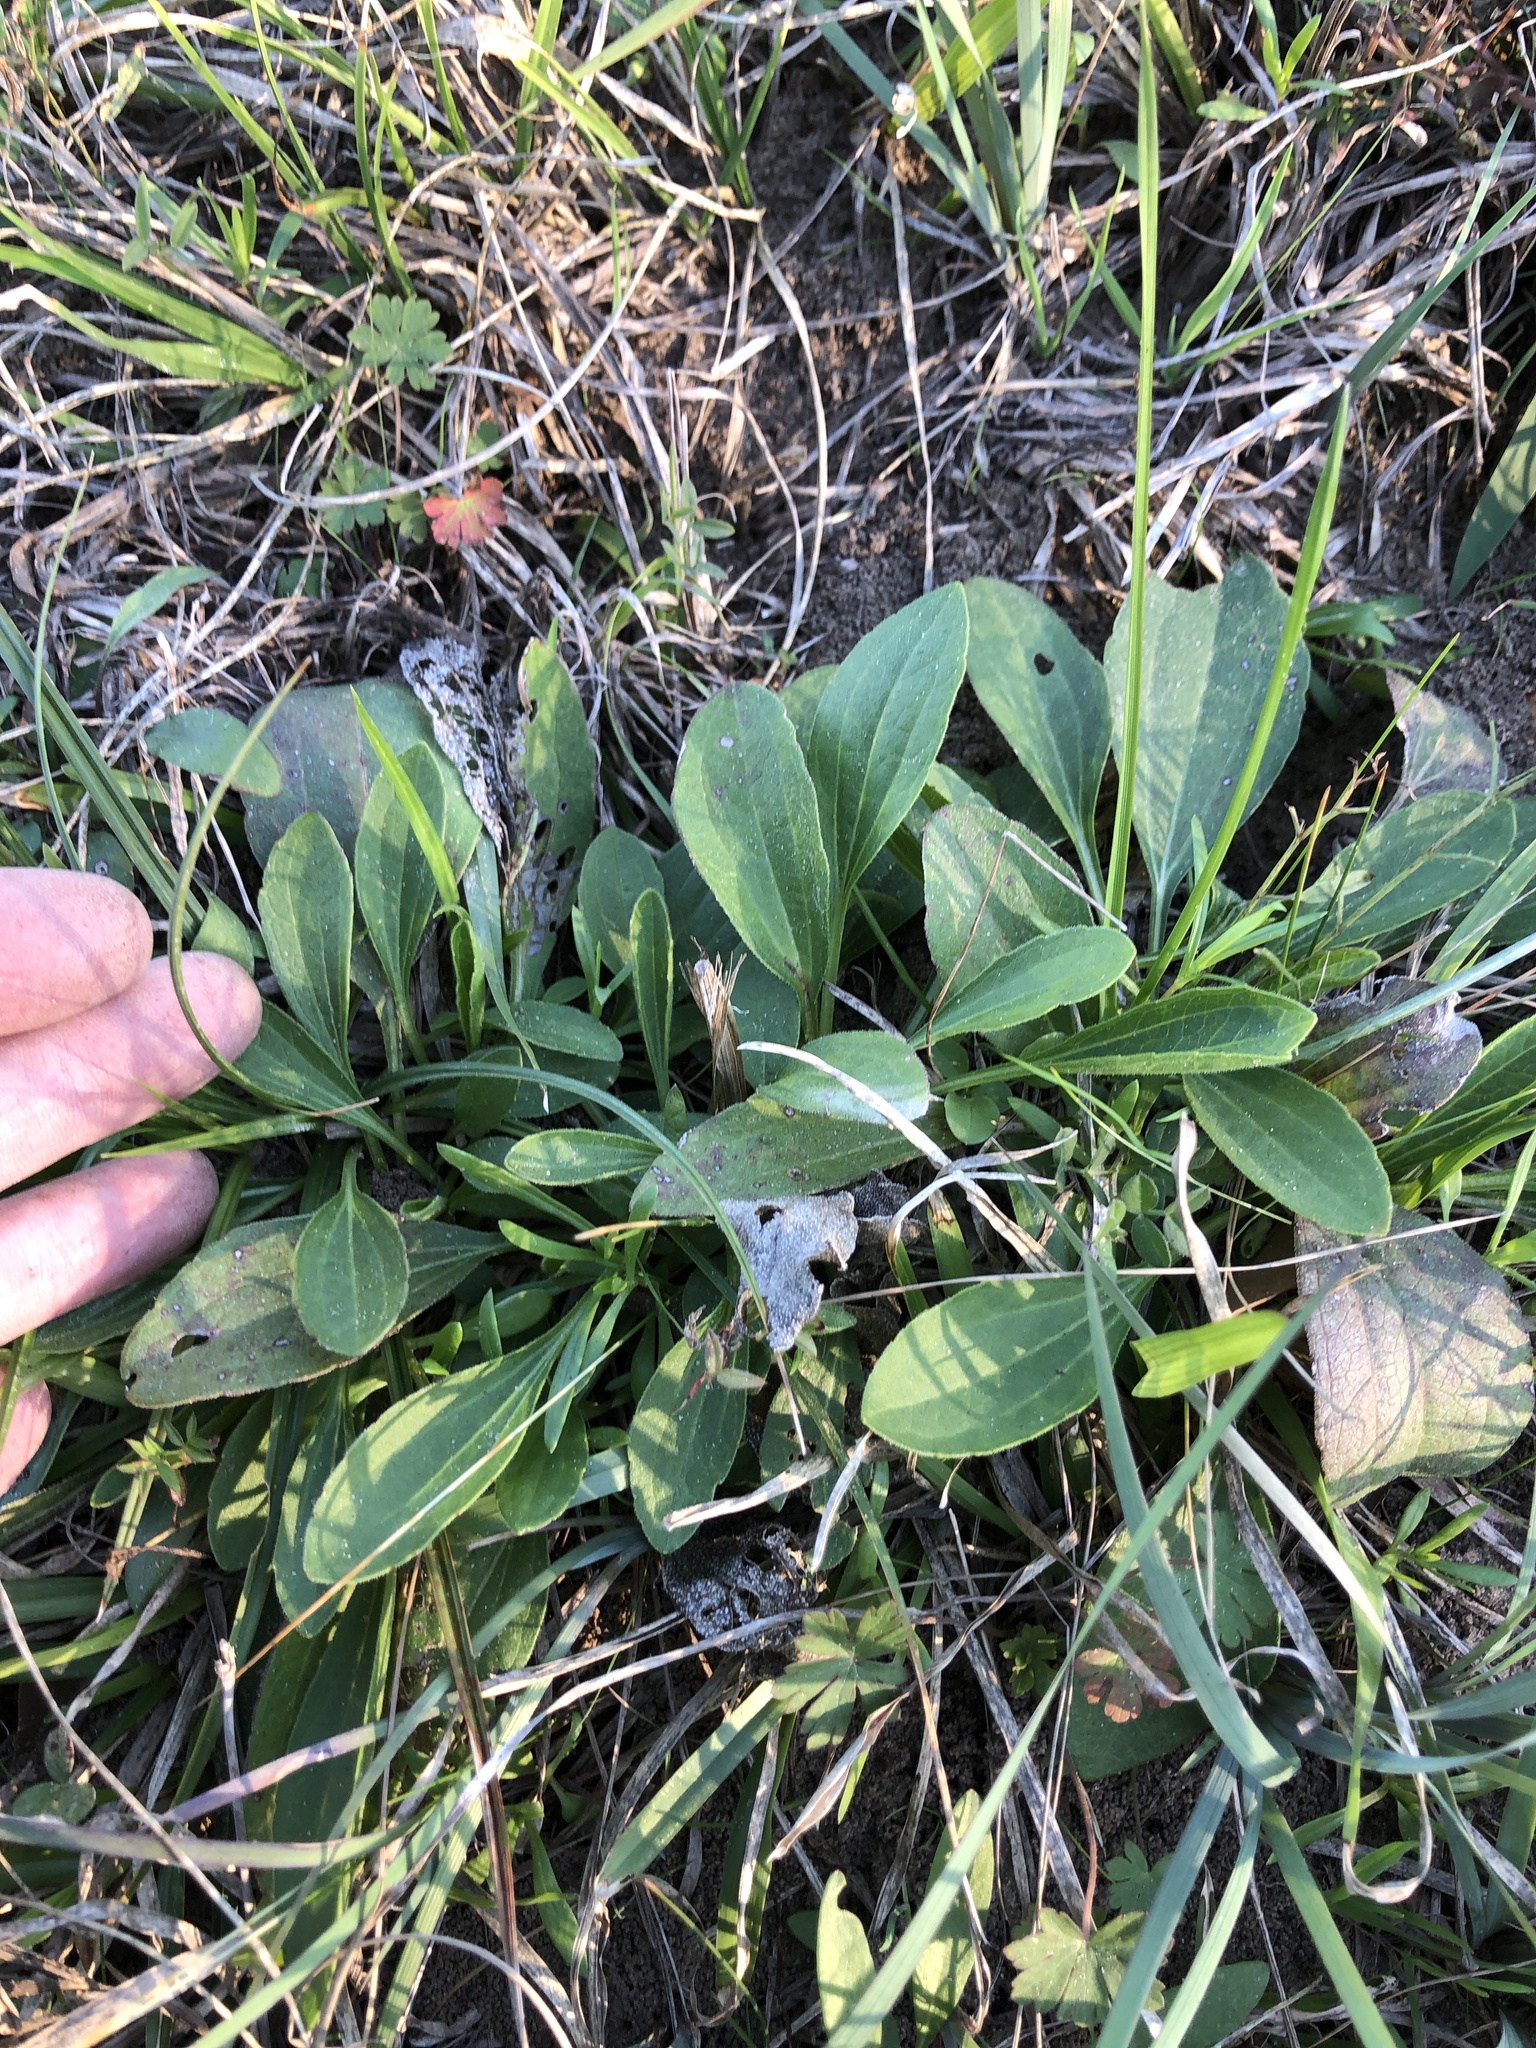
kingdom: Plantae
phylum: Tracheophyta
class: Magnoliopsida
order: Asterales
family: Asteraceae
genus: Rudbeckia
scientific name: Rudbeckia grandiflora
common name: Large-flowered coneflower
